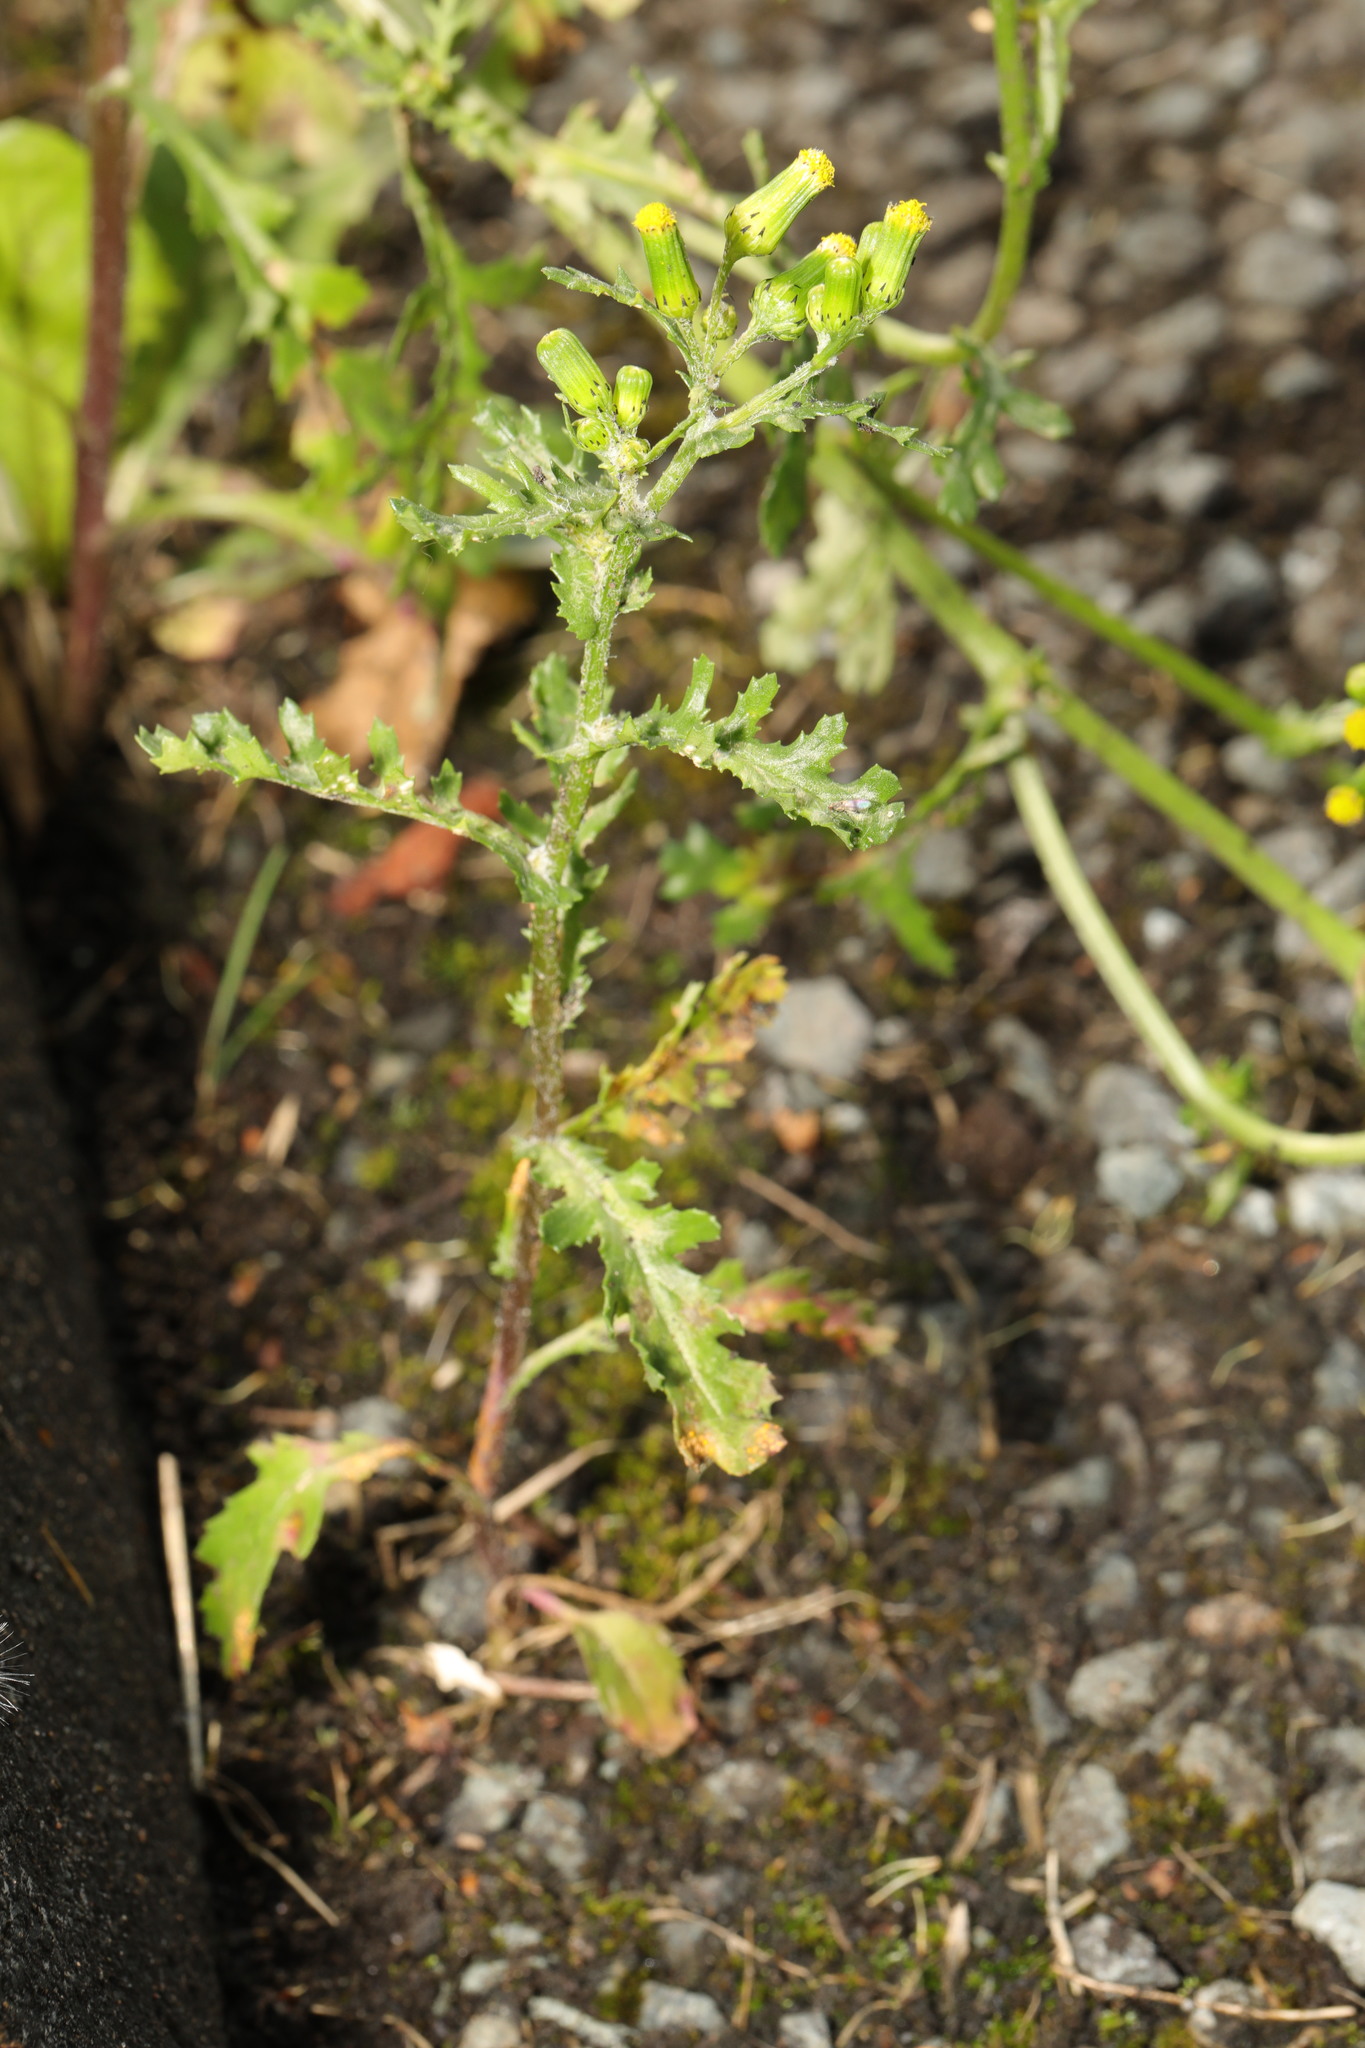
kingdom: Plantae
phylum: Tracheophyta
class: Magnoliopsida
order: Asterales
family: Asteraceae
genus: Senecio
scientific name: Senecio vulgaris
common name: Old-man-in-the-spring
